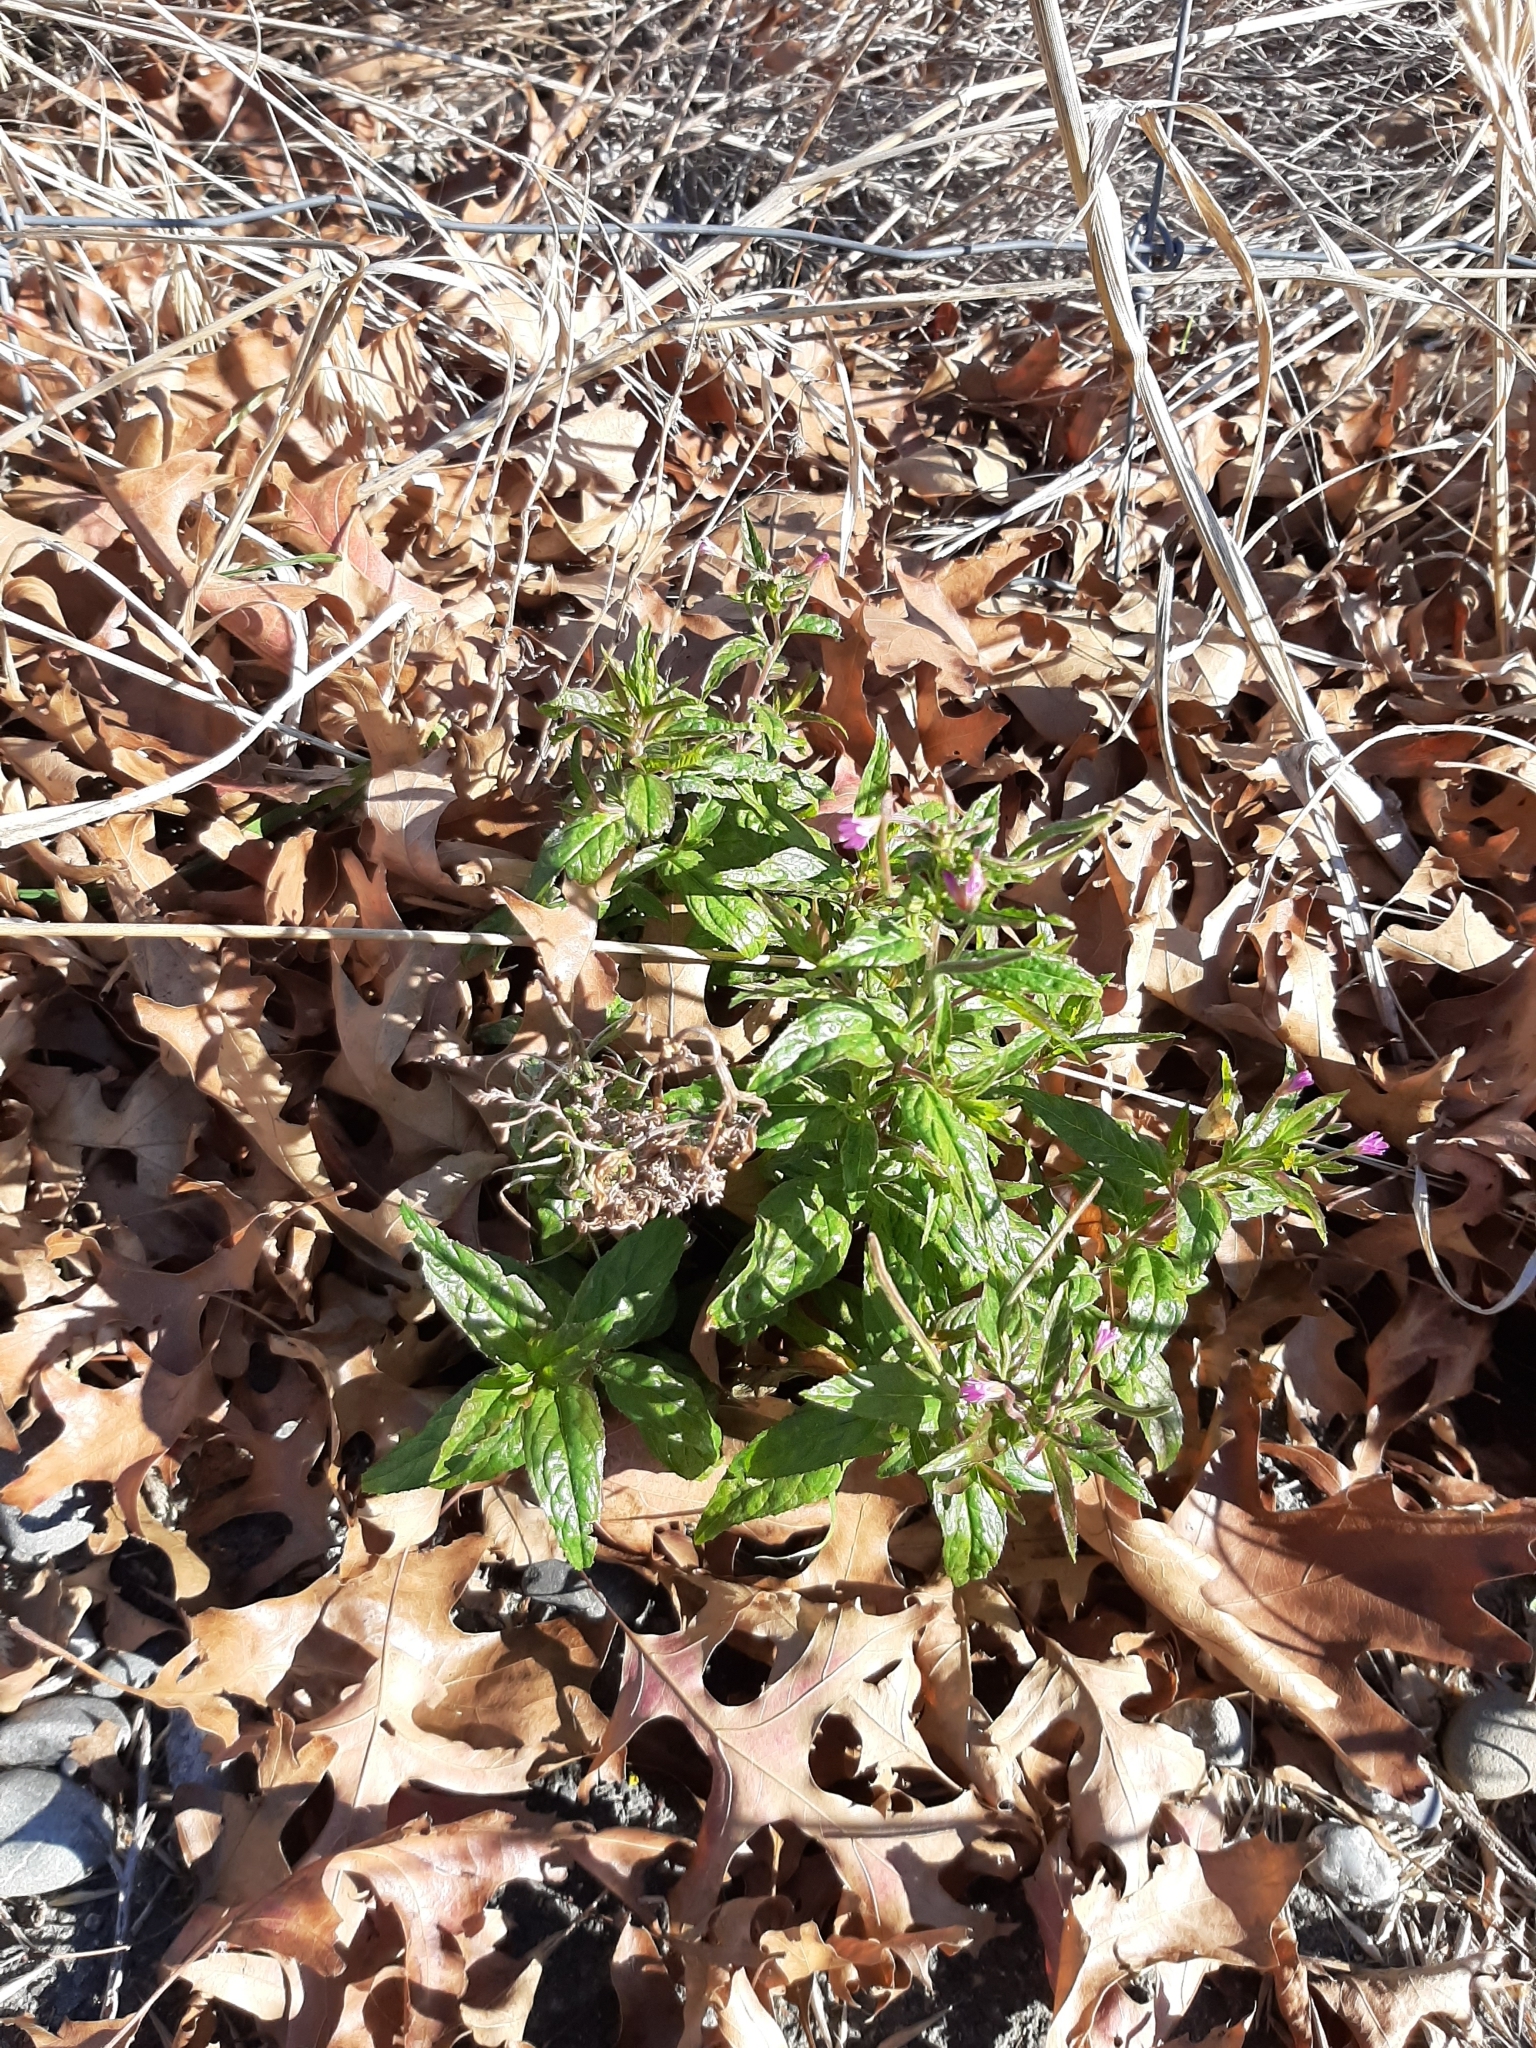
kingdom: Plantae
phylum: Tracheophyta
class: Magnoliopsida
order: Myrtales
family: Onagraceae
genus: Epilobium
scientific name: Epilobium ciliatum
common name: American willowherb
